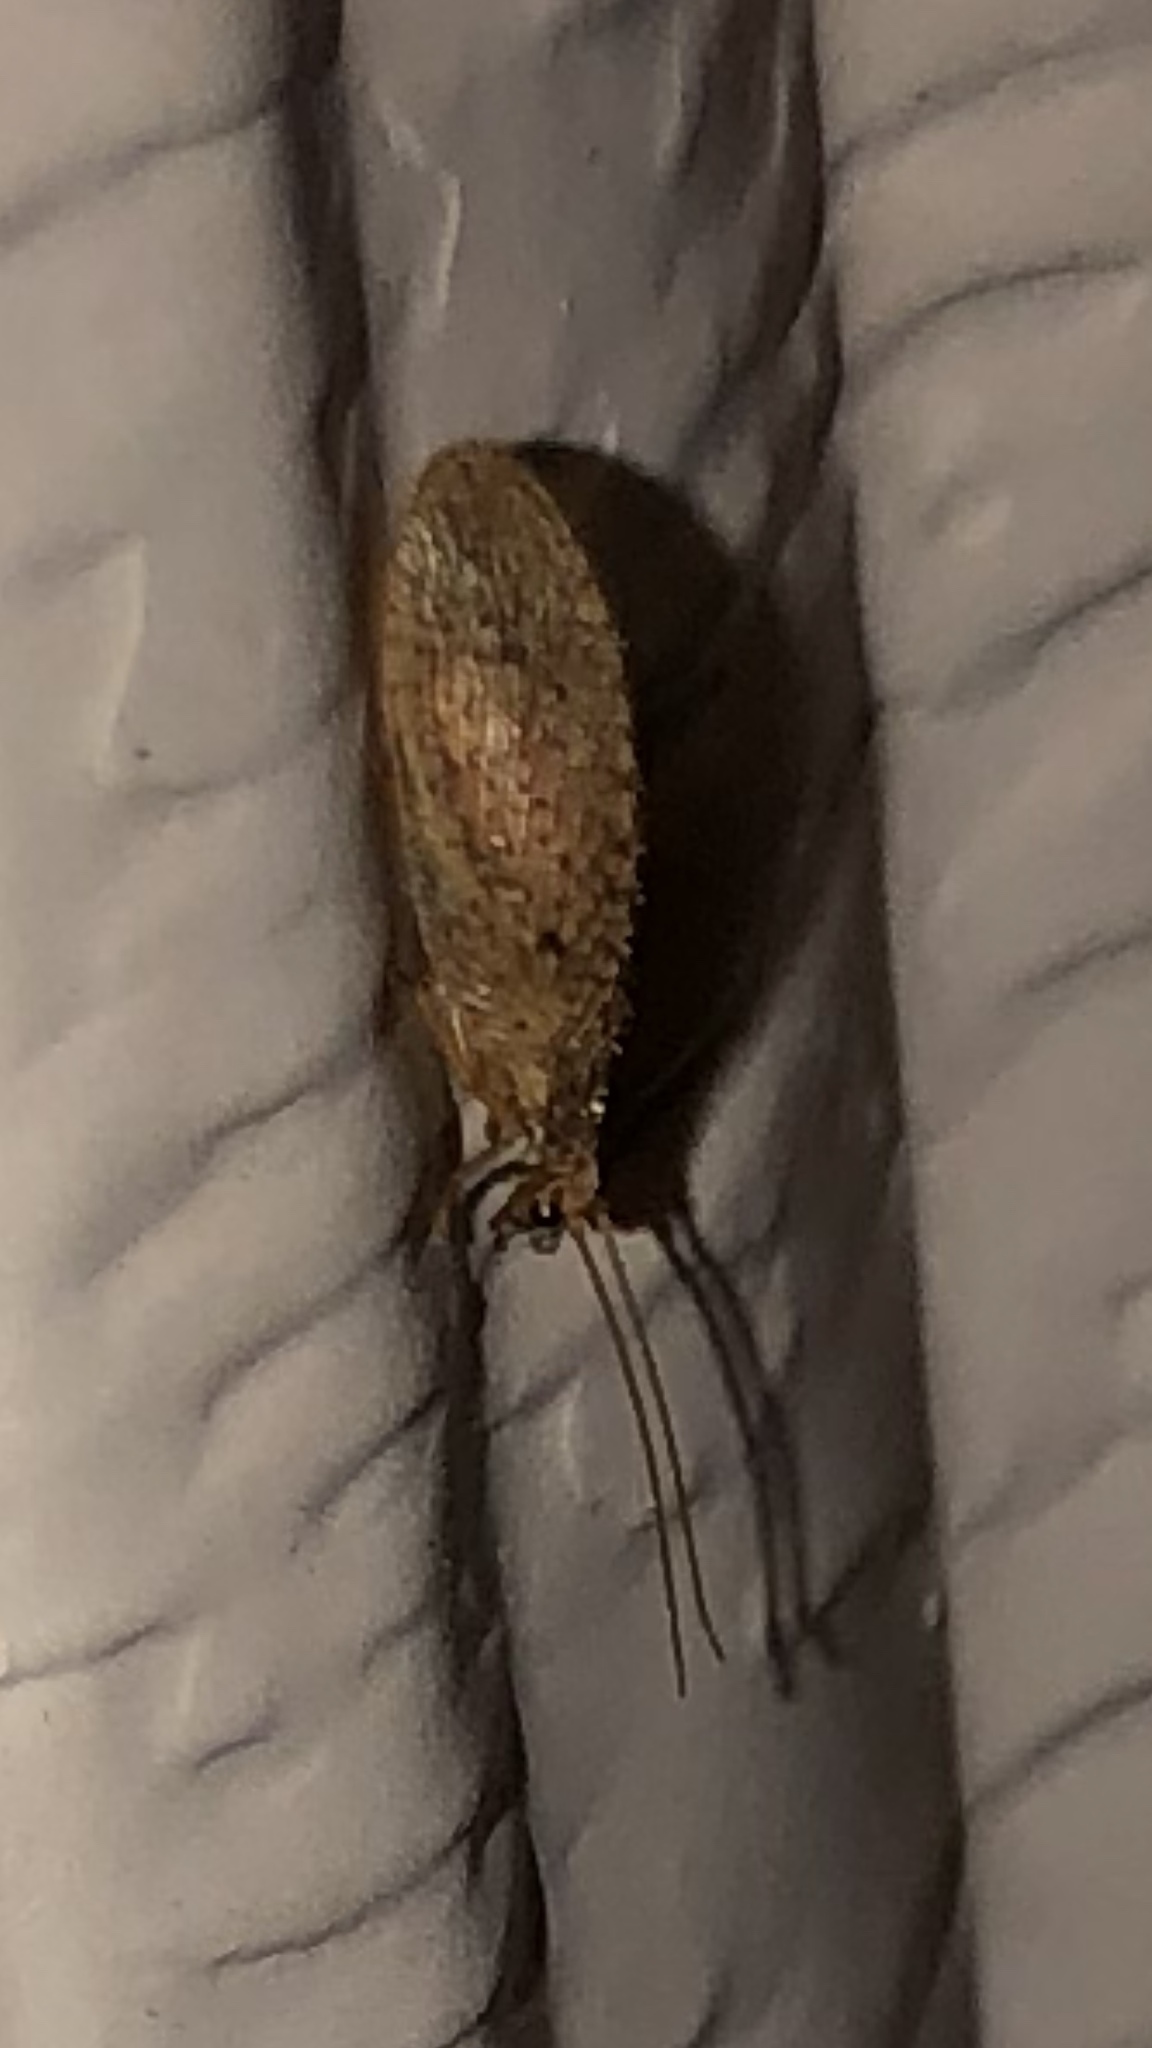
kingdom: Animalia
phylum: Arthropoda
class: Insecta
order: Neuroptera
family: Hemerobiidae
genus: Micromus
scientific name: Micromus subanticus
